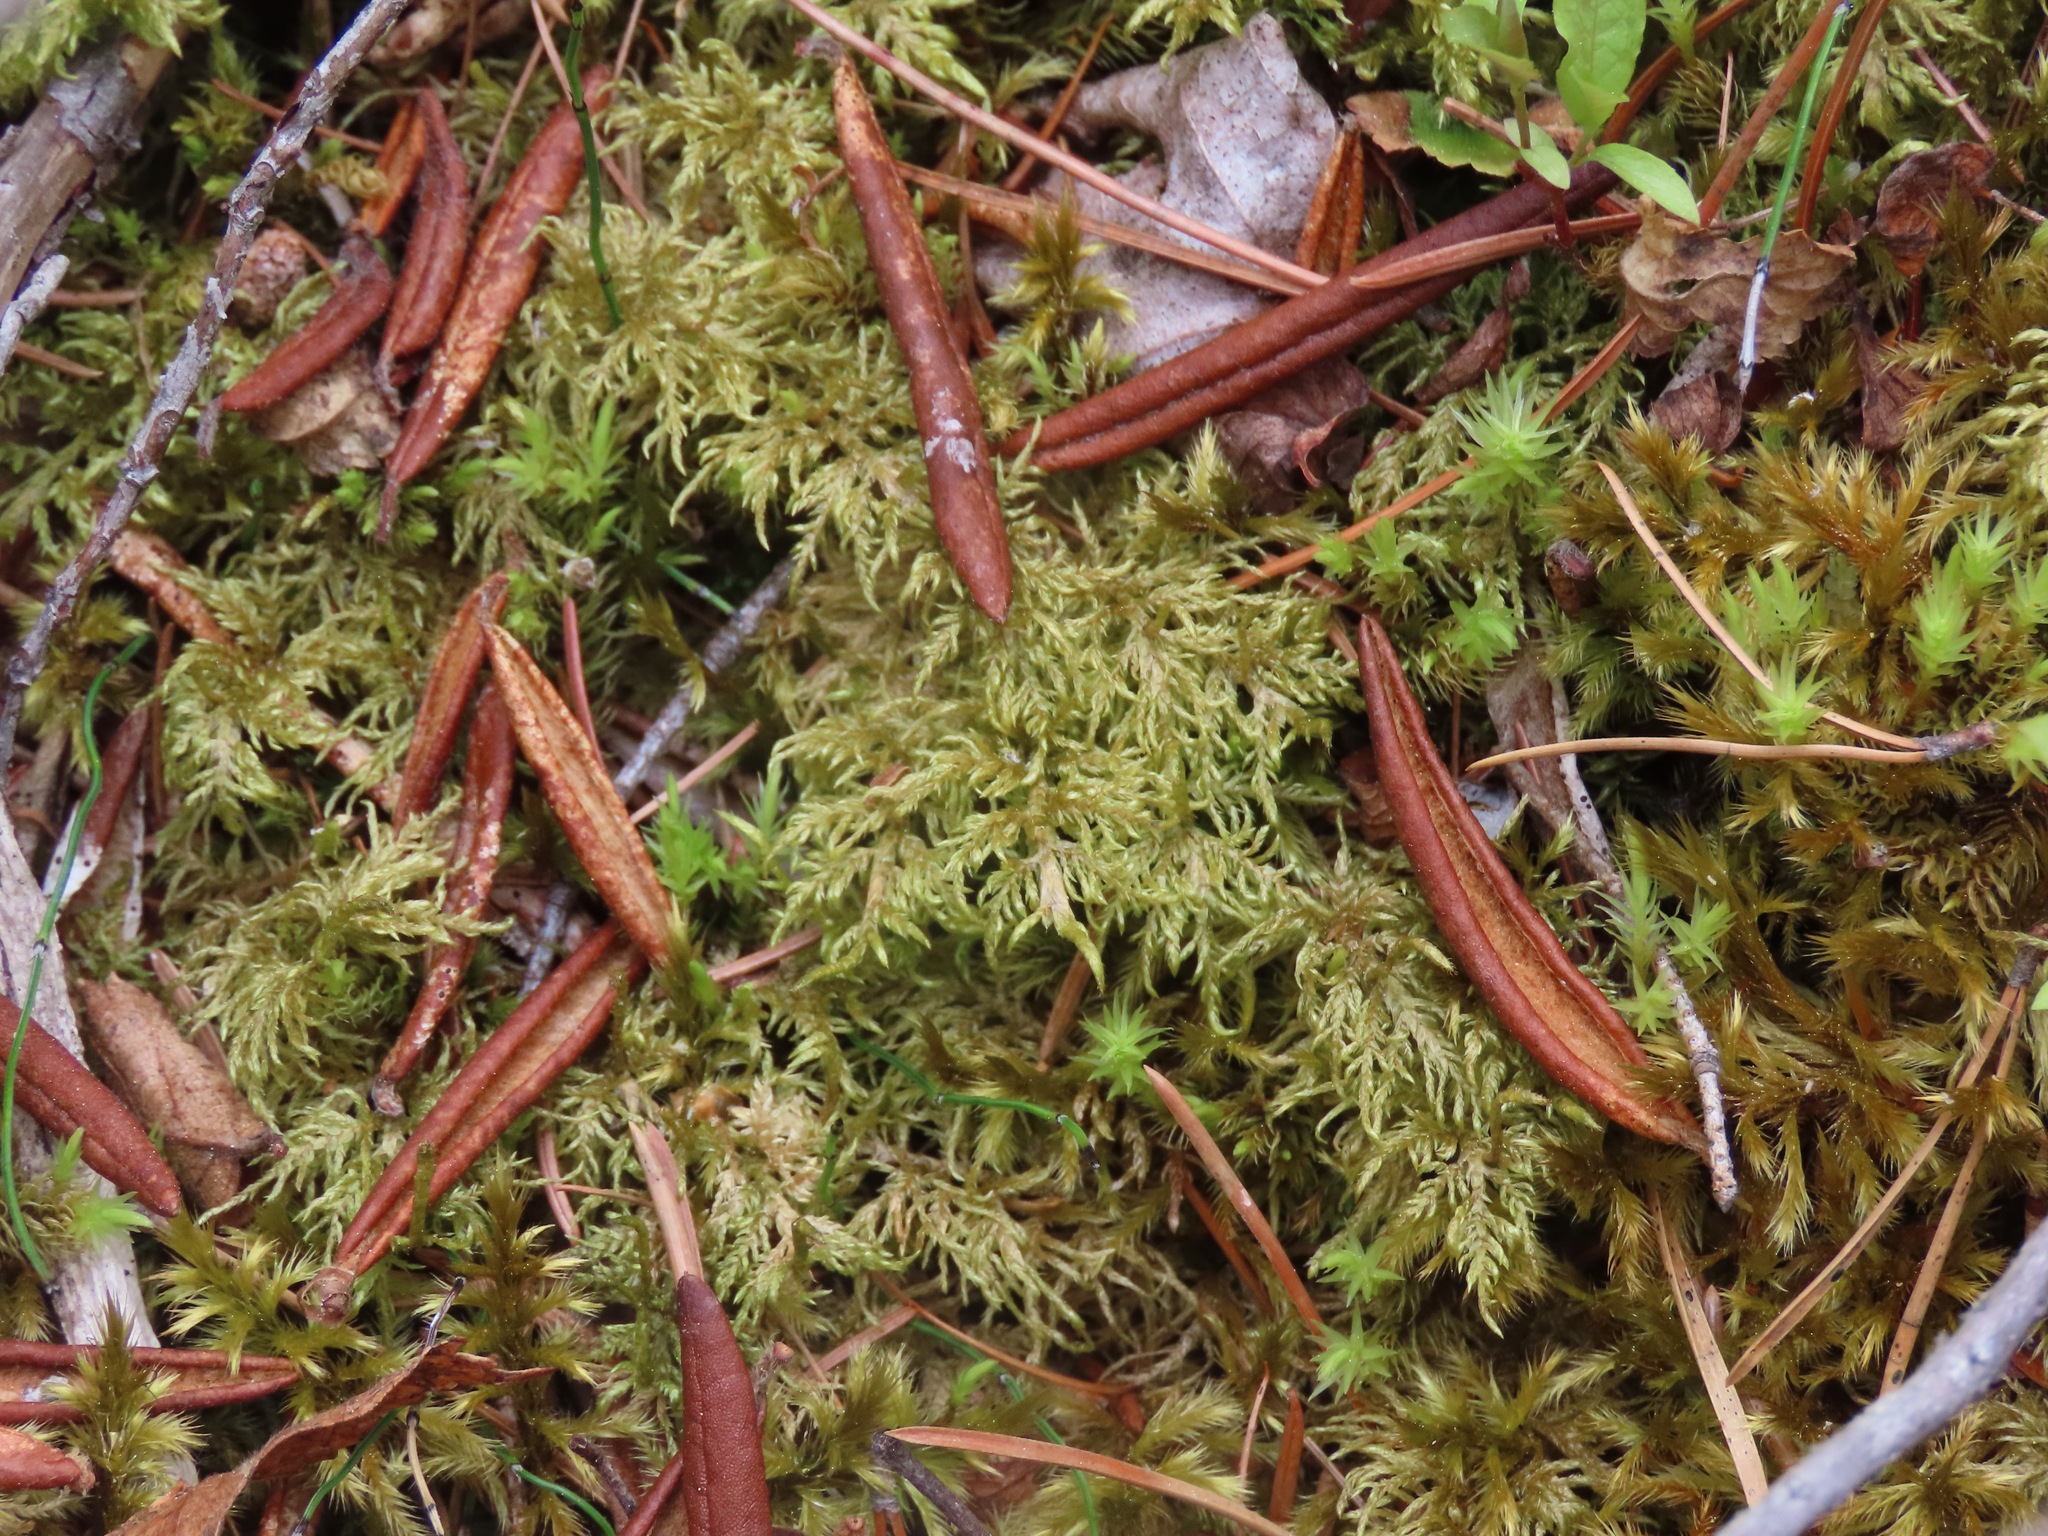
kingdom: Plantae
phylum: Bryophyta
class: Bryopsida
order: Hypnales
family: Hylocomiaceae
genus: Hylocomium
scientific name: Hylocomium splendens
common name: Stairstep moss
